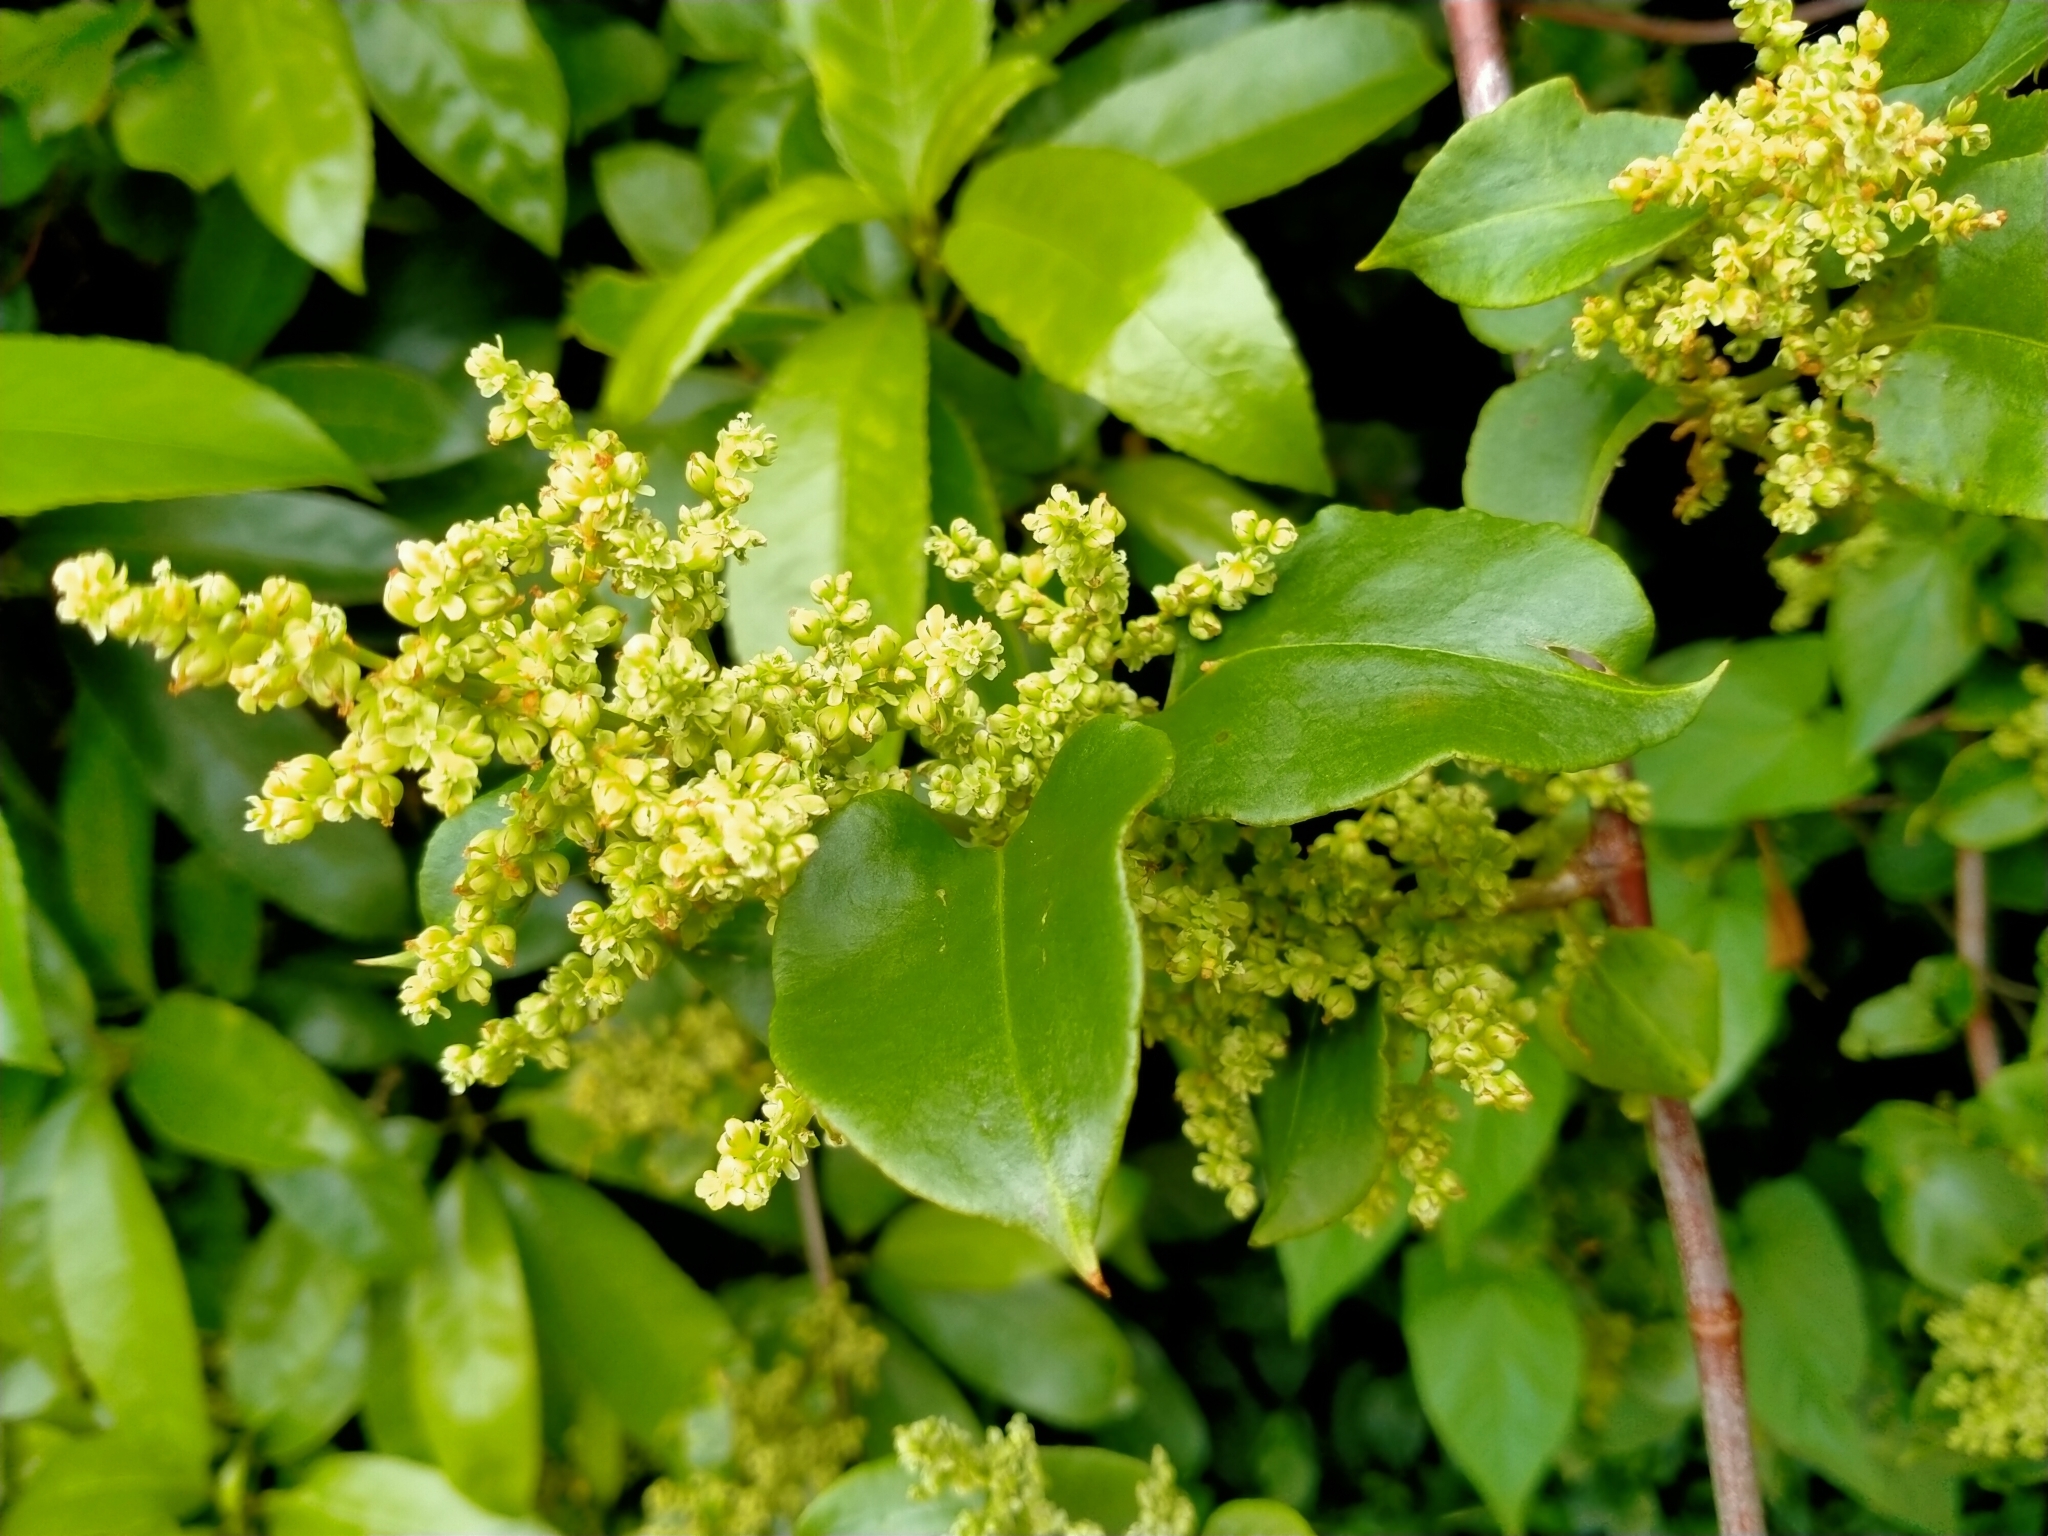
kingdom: Plantae
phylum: Tracheophyta
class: Magnoliopsida
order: Caryophyllales
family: Polygonaceae
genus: Muehlenbeckia
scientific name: Muehlenbeckia australis
